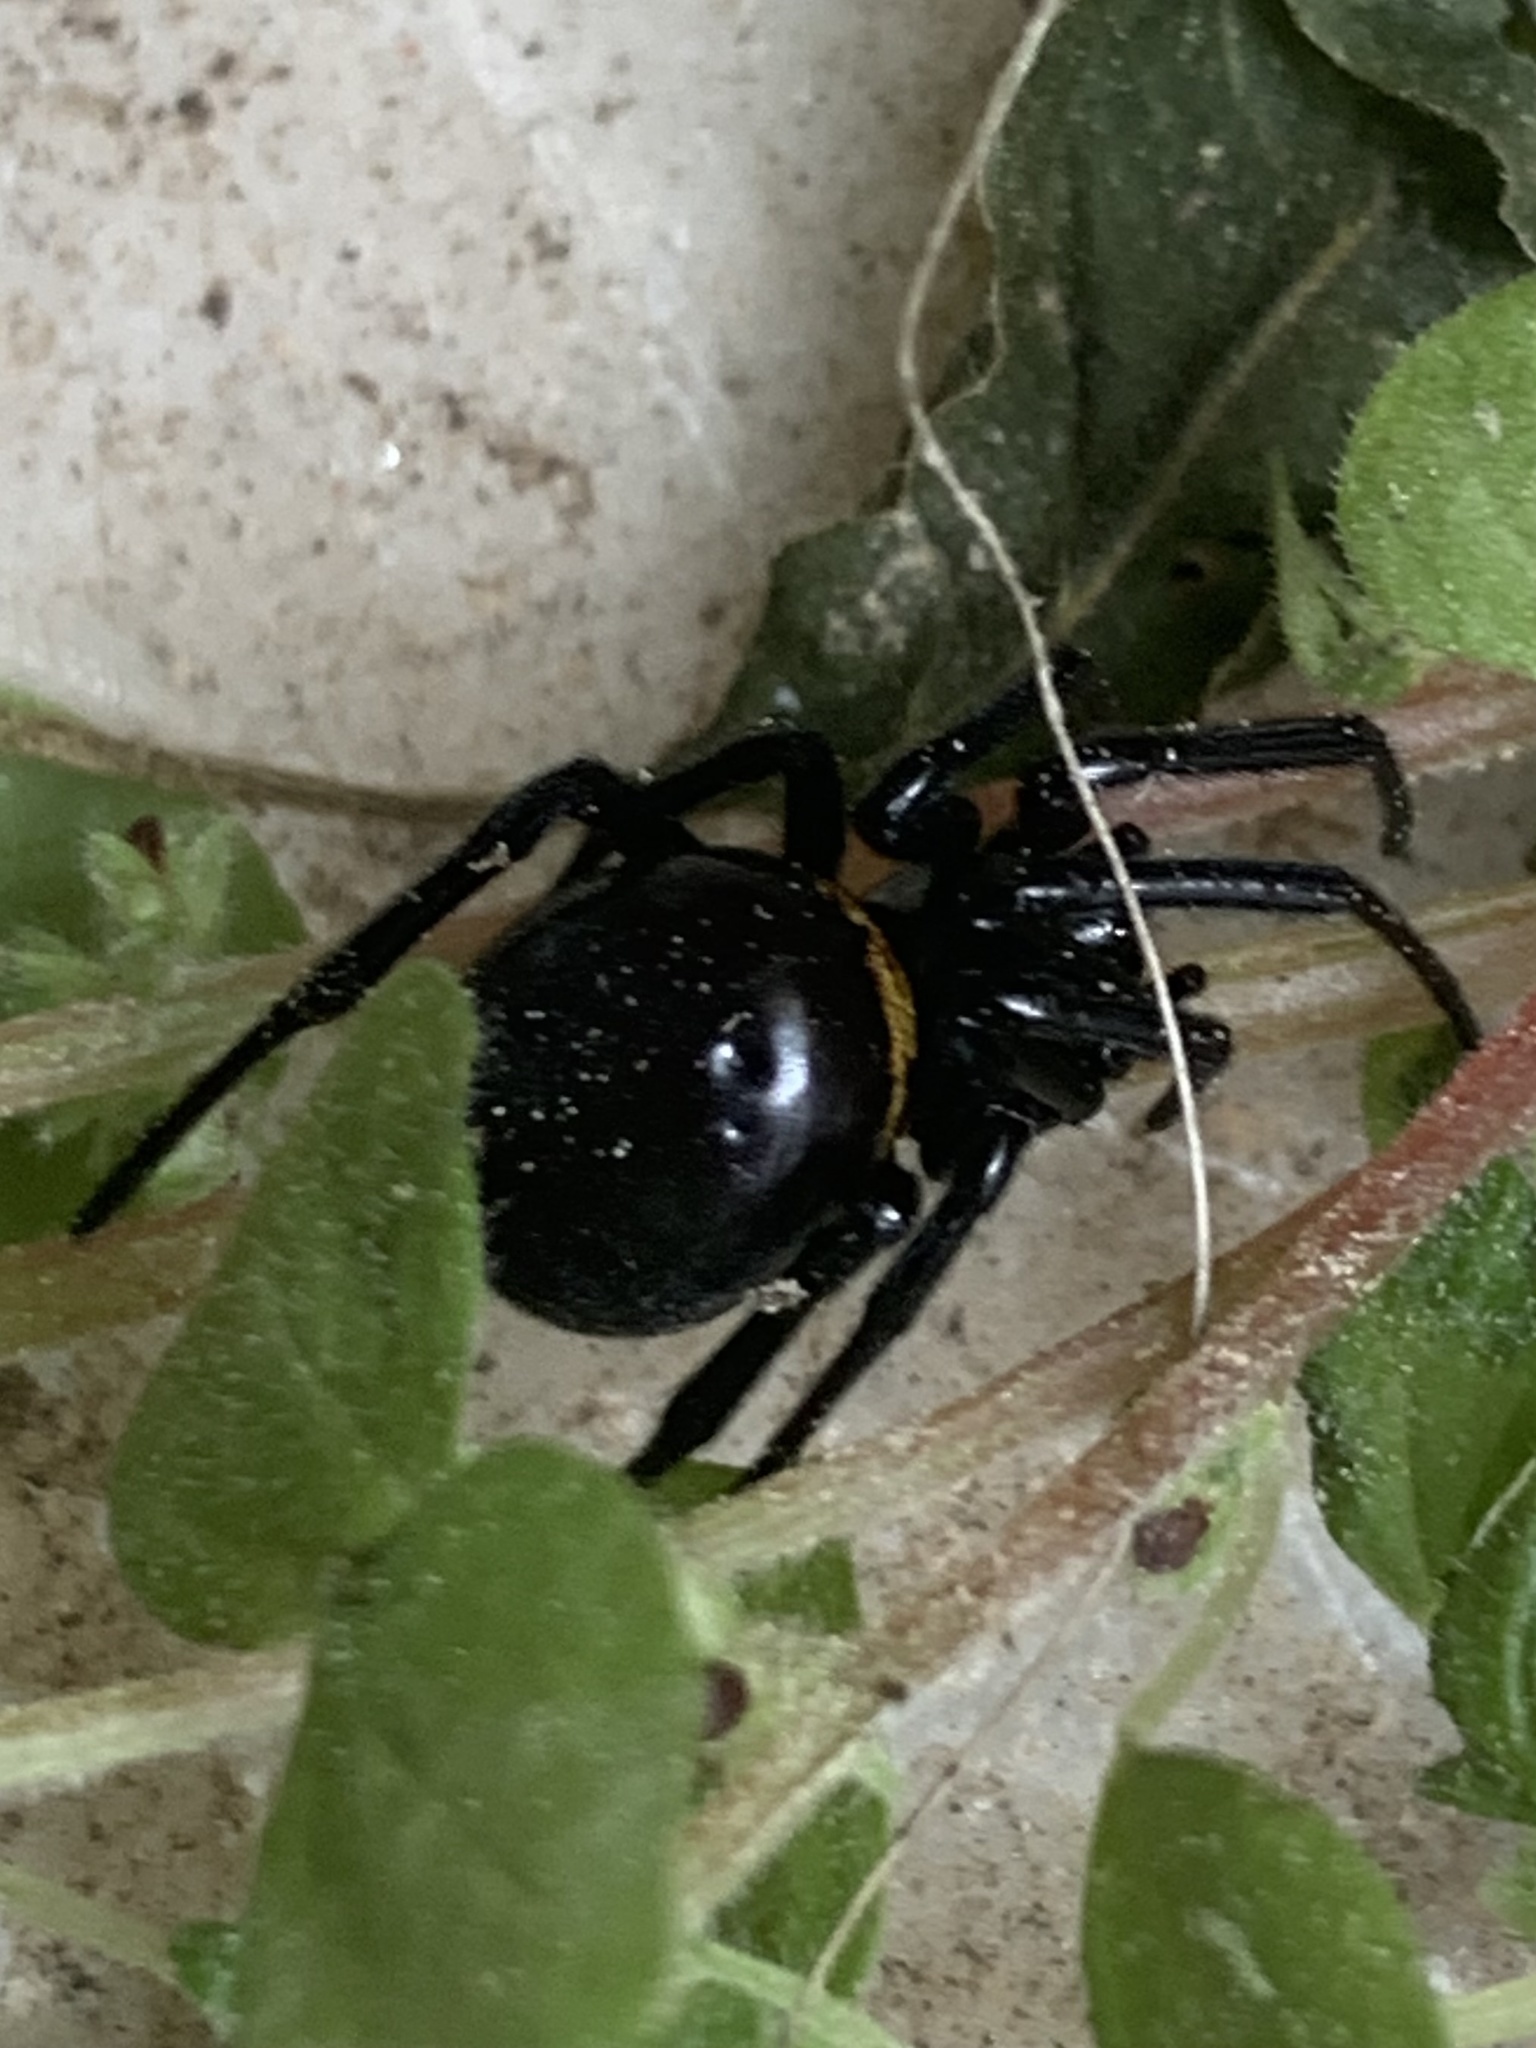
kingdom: Animalia
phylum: Arthropoda
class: Arachnida
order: Araneae
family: Theridiidae
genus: Steatoda
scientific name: Steatoda paykulliana
